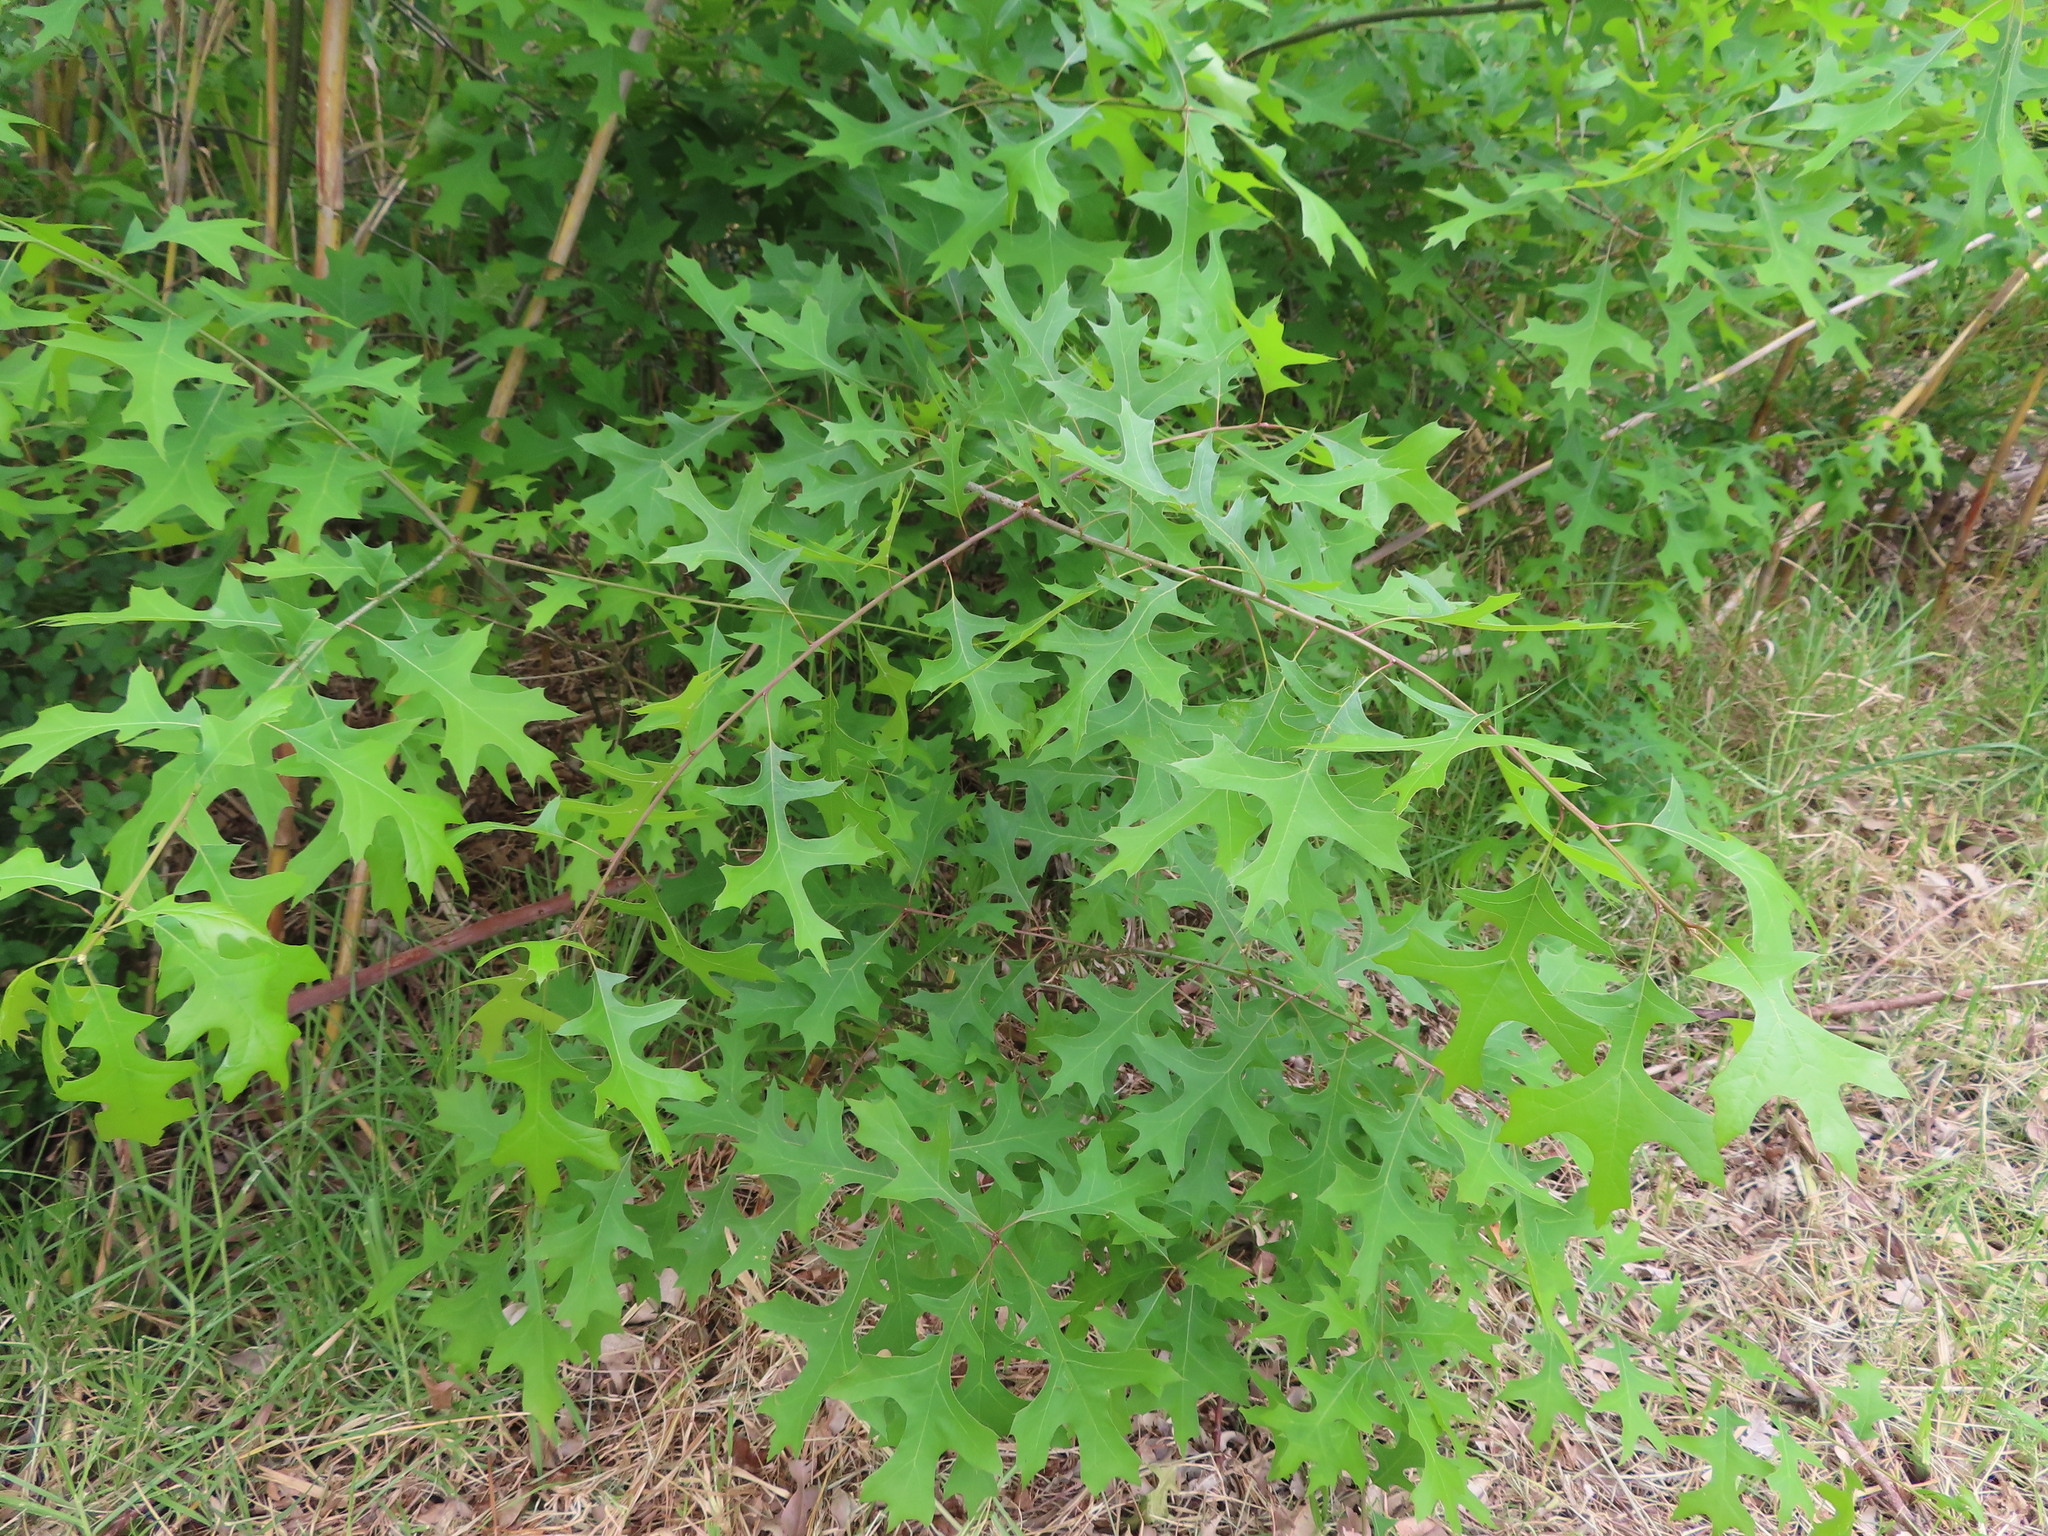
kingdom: Plantae
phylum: Tracheophyta
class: Magnoliopsida
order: Fagales
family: Fagaceae
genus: Quercus
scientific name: Quercus palustris
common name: Pin oak
